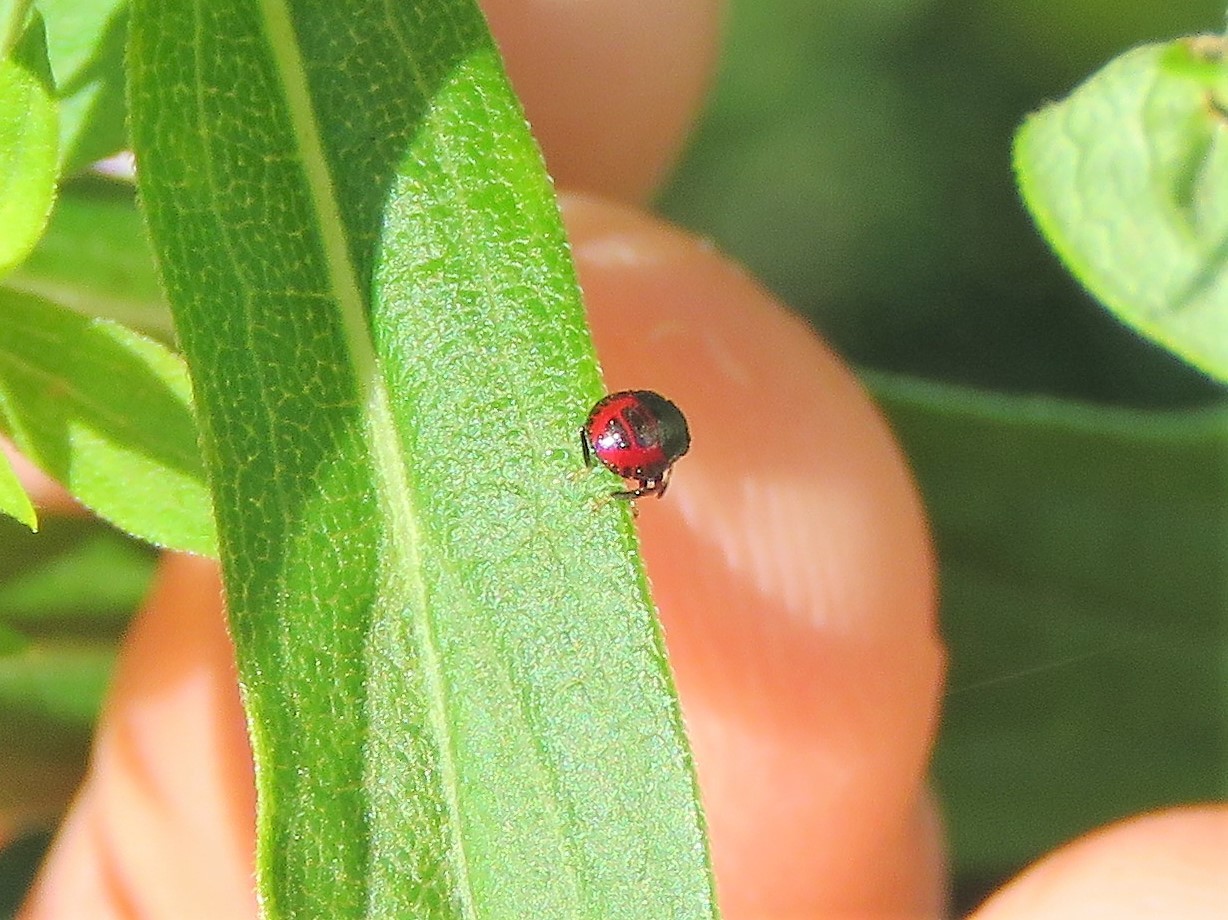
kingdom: Animalia
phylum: Arthropoda
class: Insecta
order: Hemiptera
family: Cydnidae
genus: Sehirus
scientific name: Sehirus cinctus
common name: White-margined burrower bug
